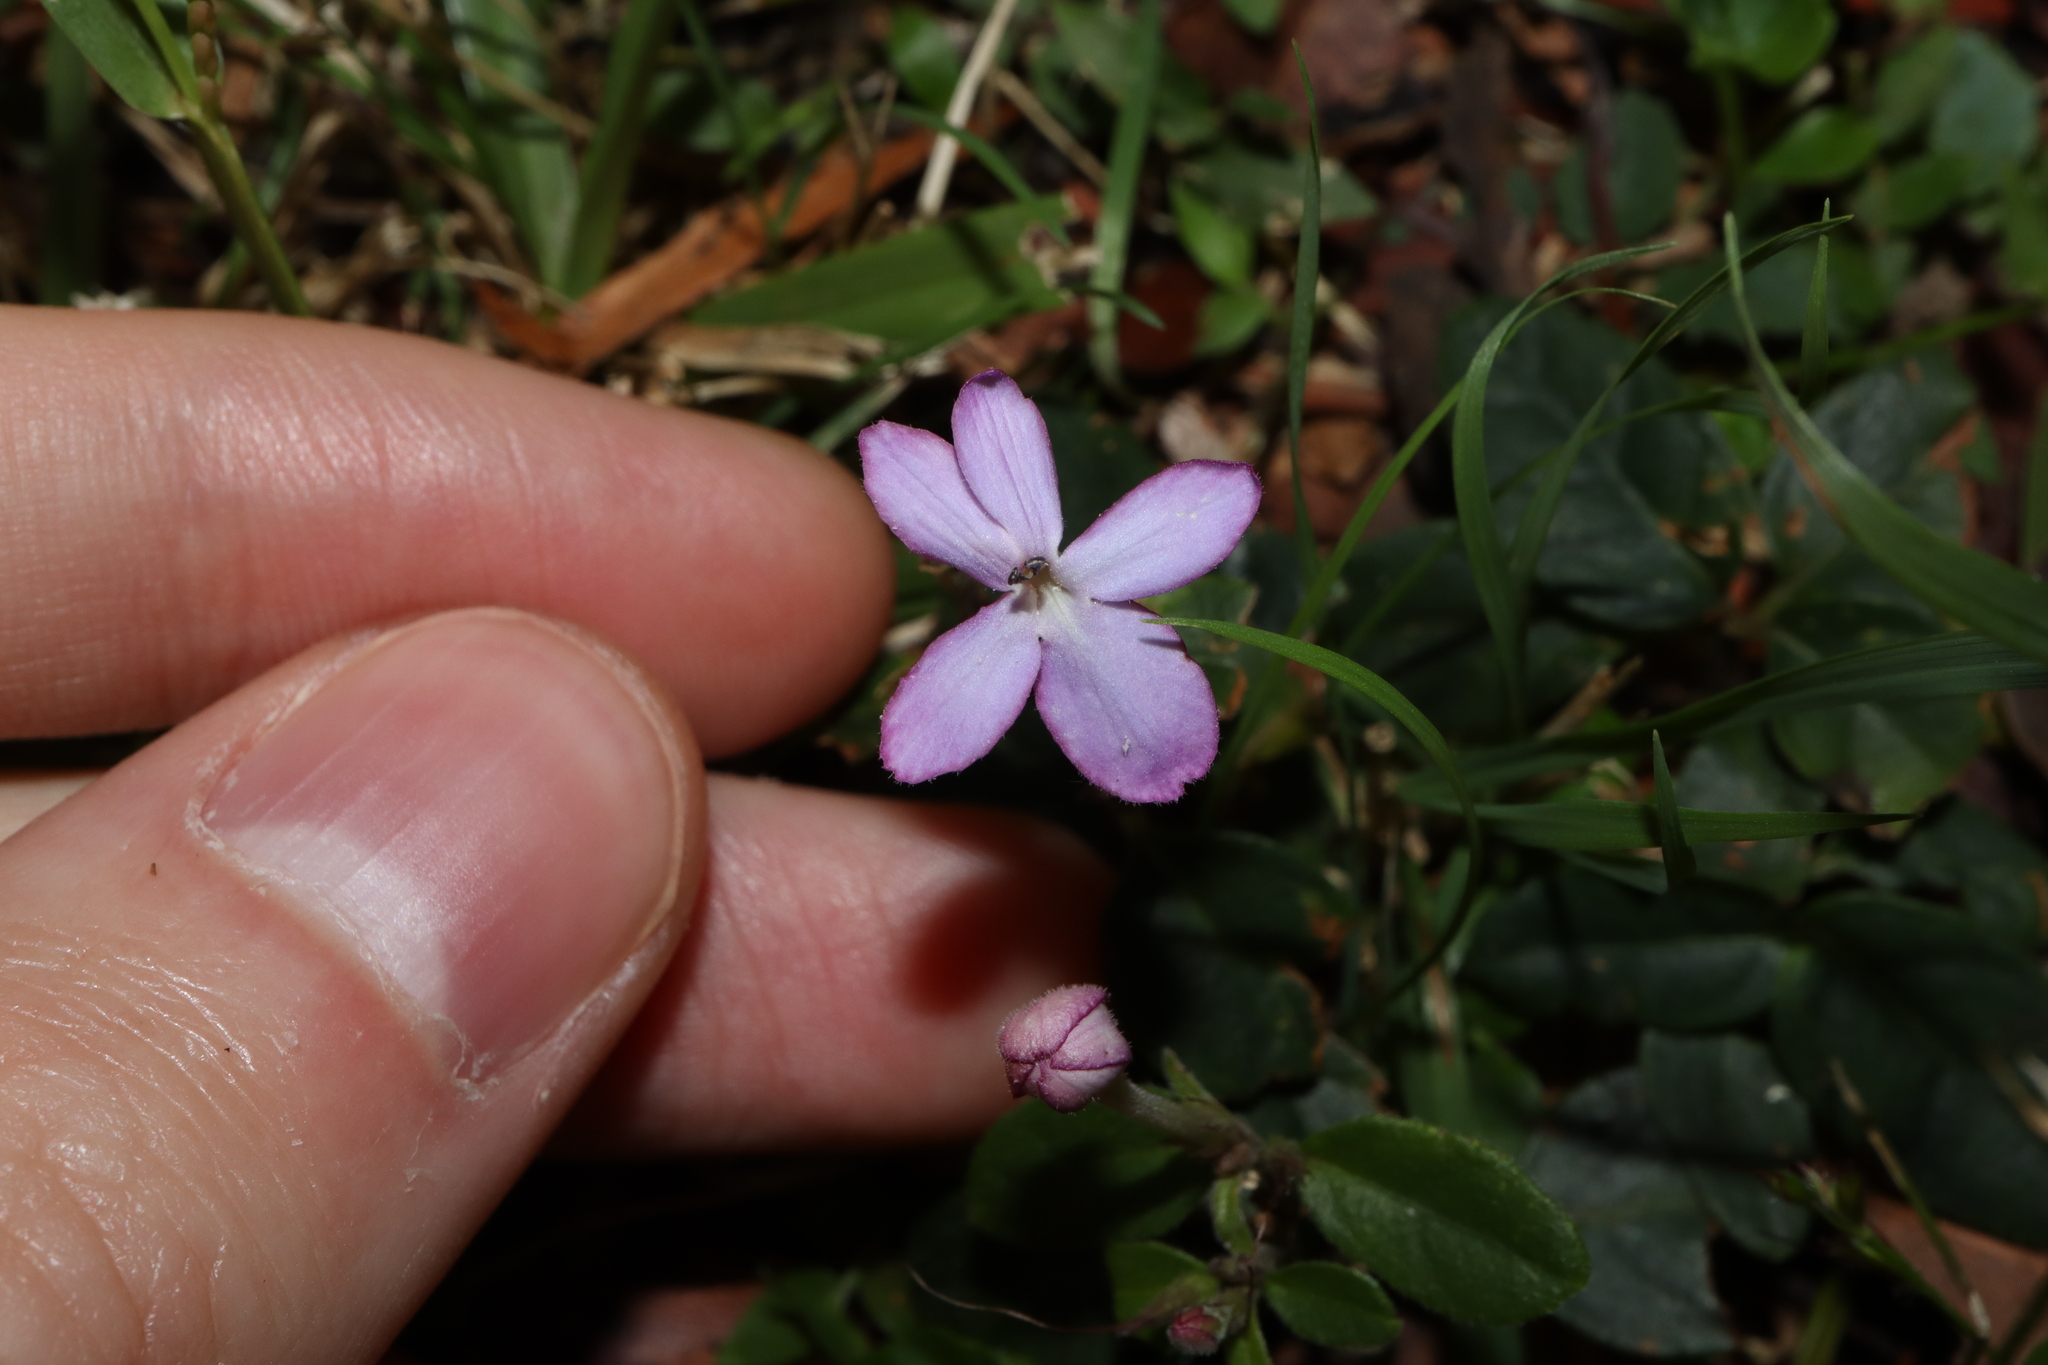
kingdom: Plantae
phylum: Tracheophyta
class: Magnoliopsida
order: Lamiales
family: Acanthaceae
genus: Pseuderanthemum
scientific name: Pseuderanthemum variabile
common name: Night and afternoon
